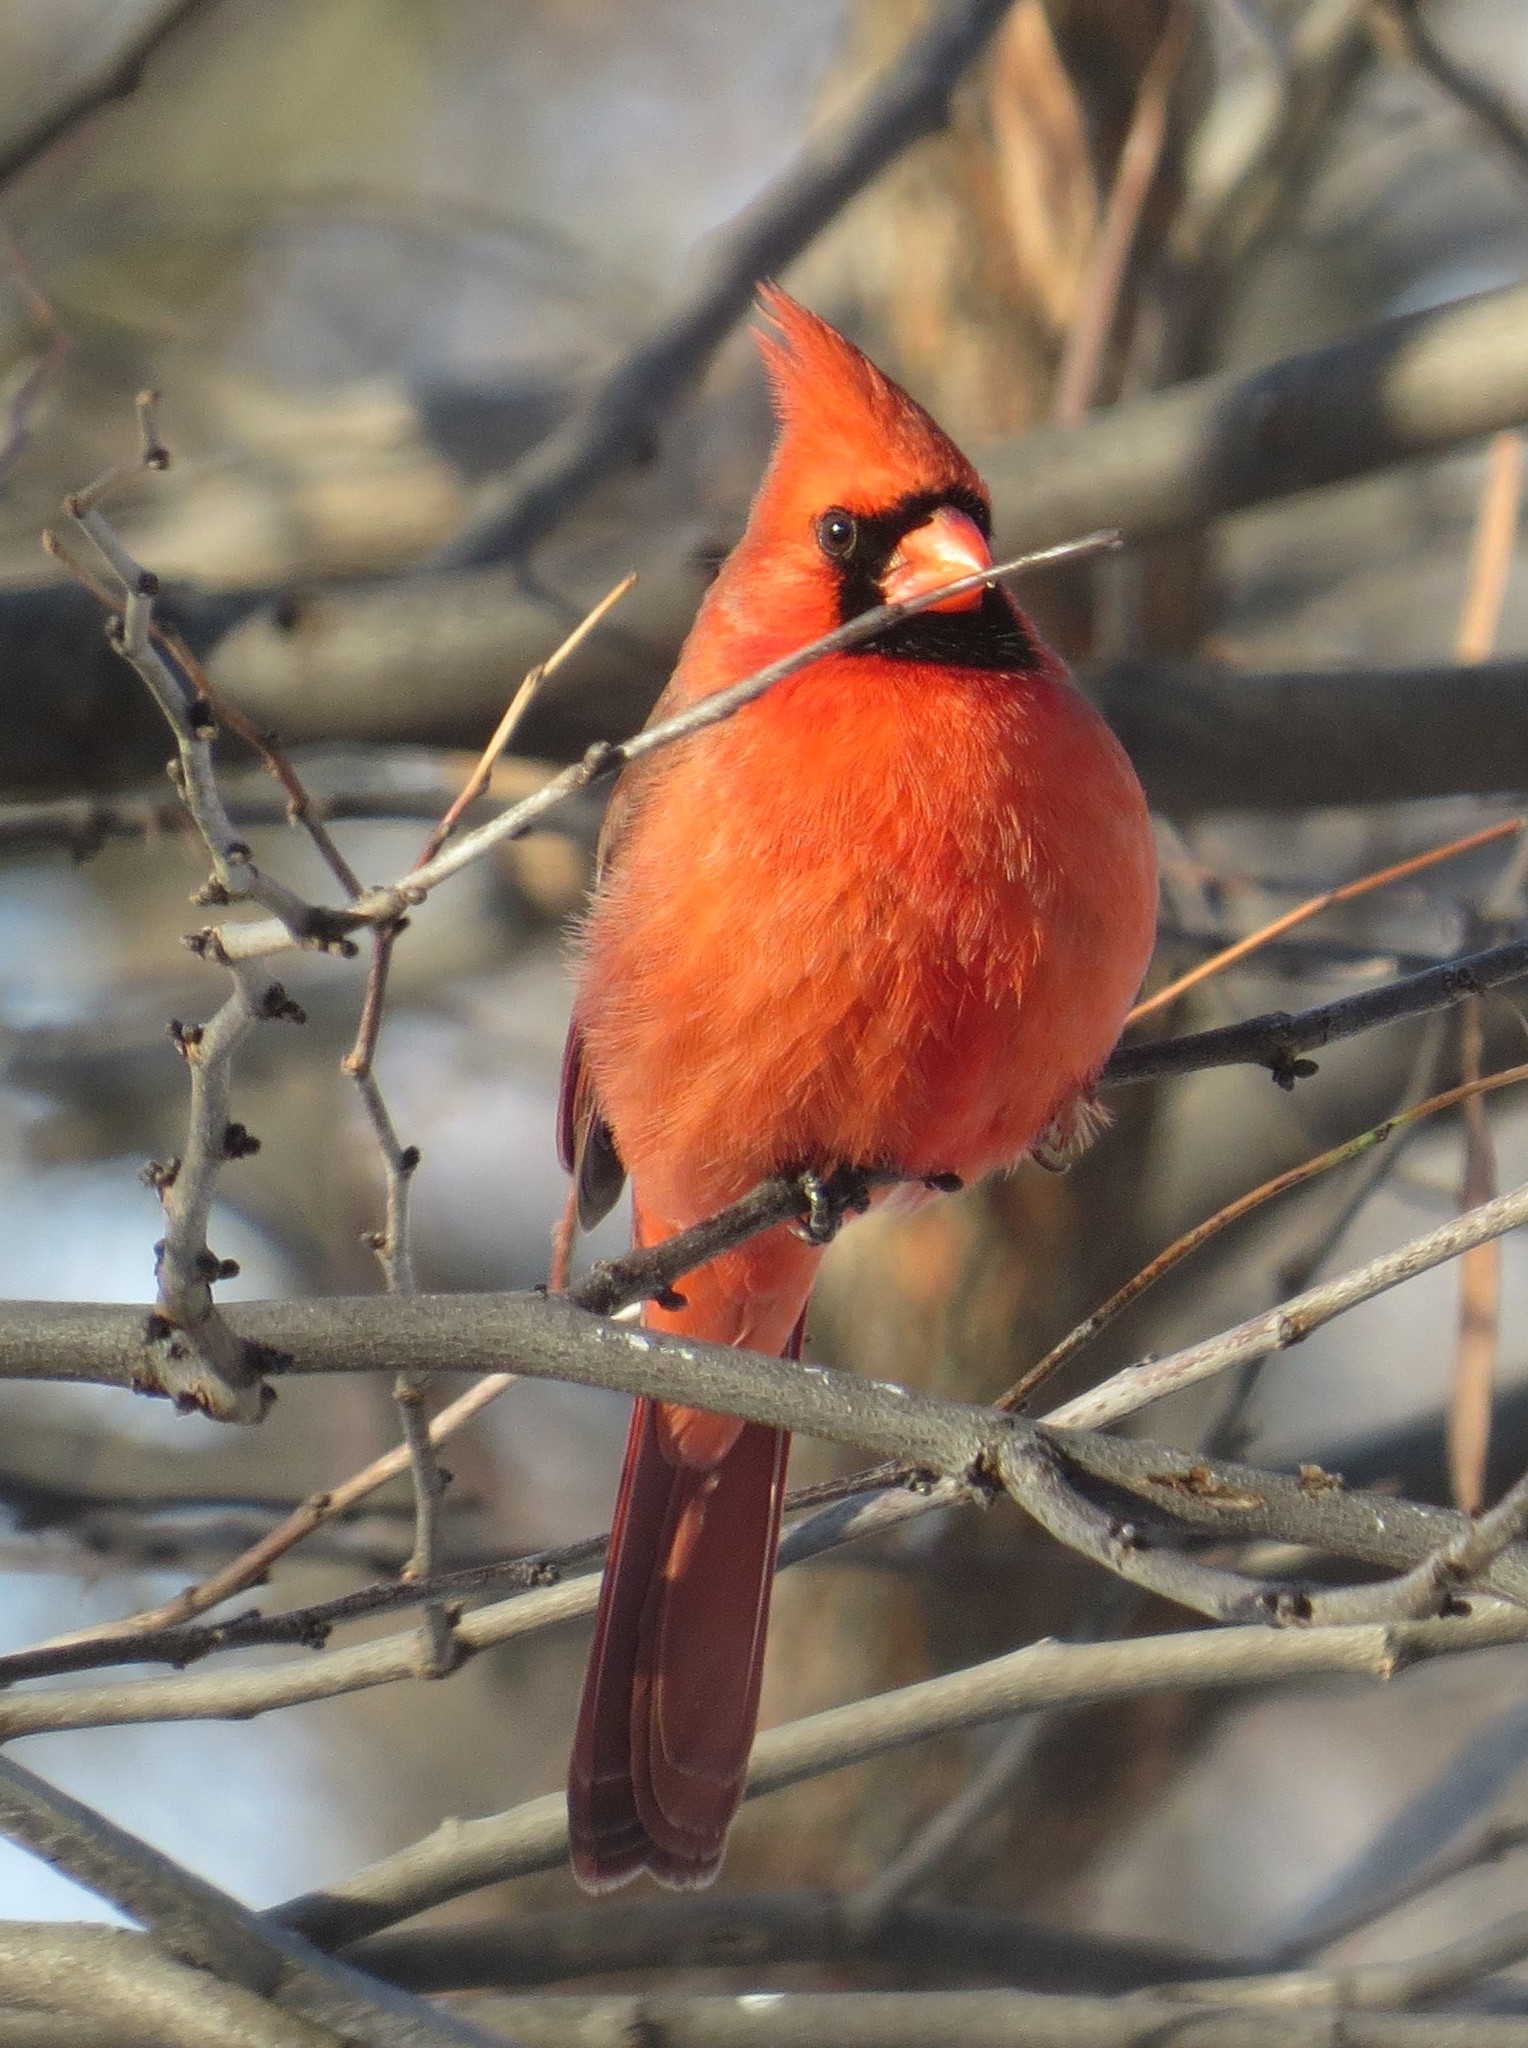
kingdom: Animalia
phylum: Chordata
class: Aves
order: Passeriformes
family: Cardinalidae
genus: Cardinalis
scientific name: Cardinalis cardinalis
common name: Northern cardinal
